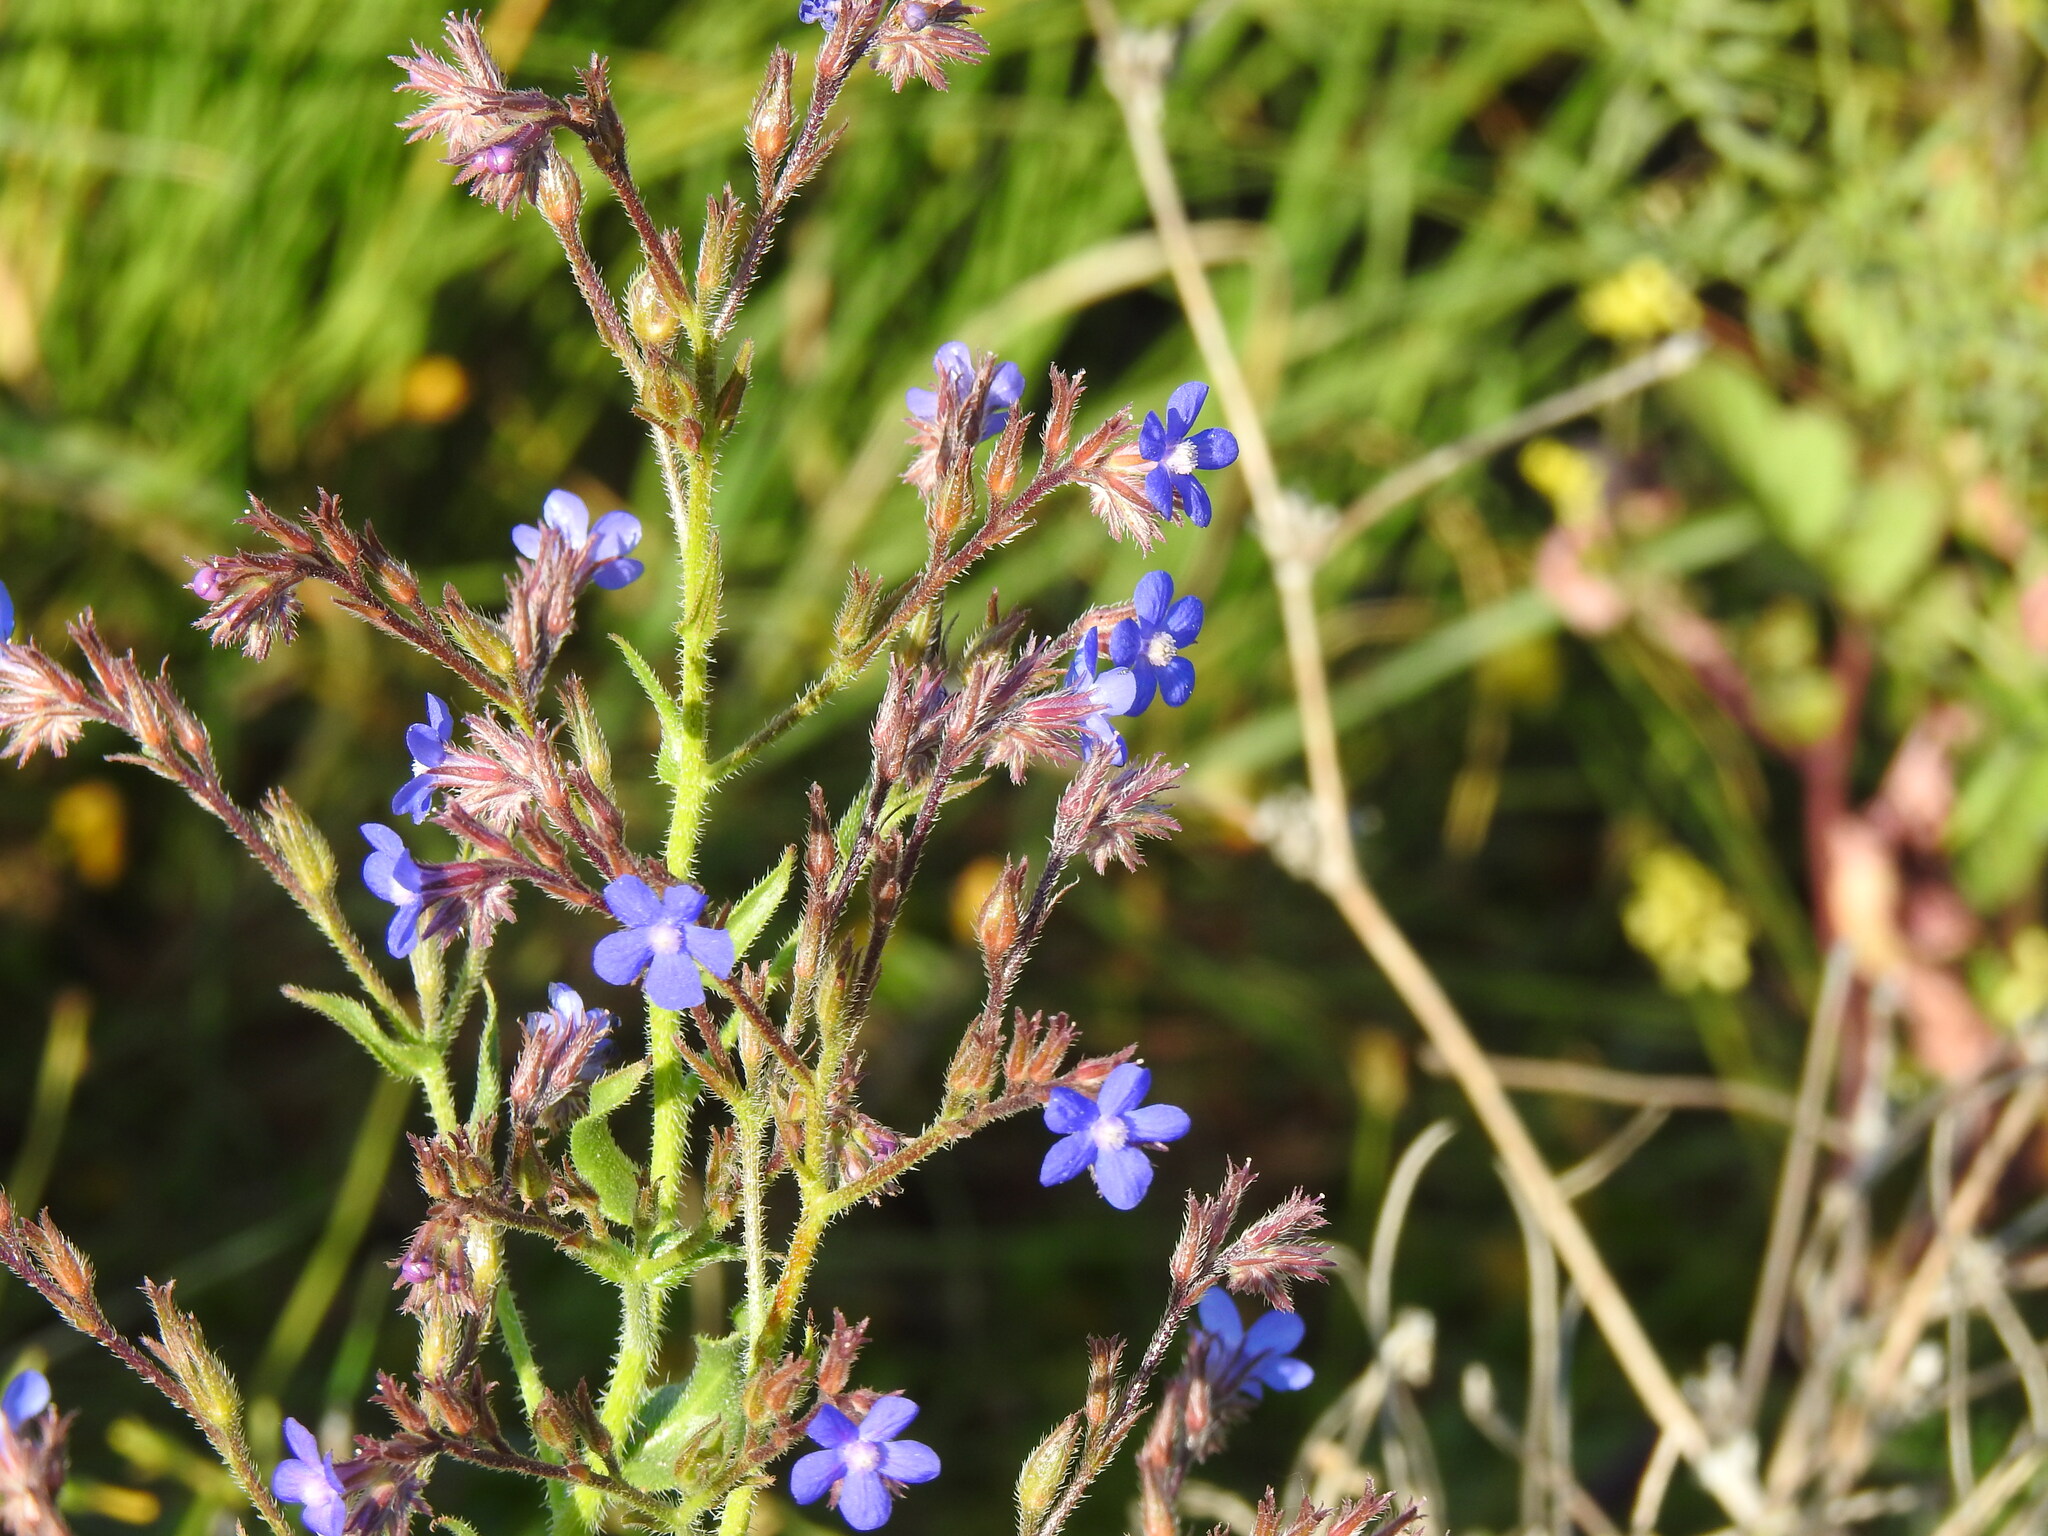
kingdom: Plantae
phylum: Tracheophyta
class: Magnoliopsida
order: Boraginales
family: Boraginaceae
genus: Anchusa
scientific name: Anchusa azurea
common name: Garden anchusa
